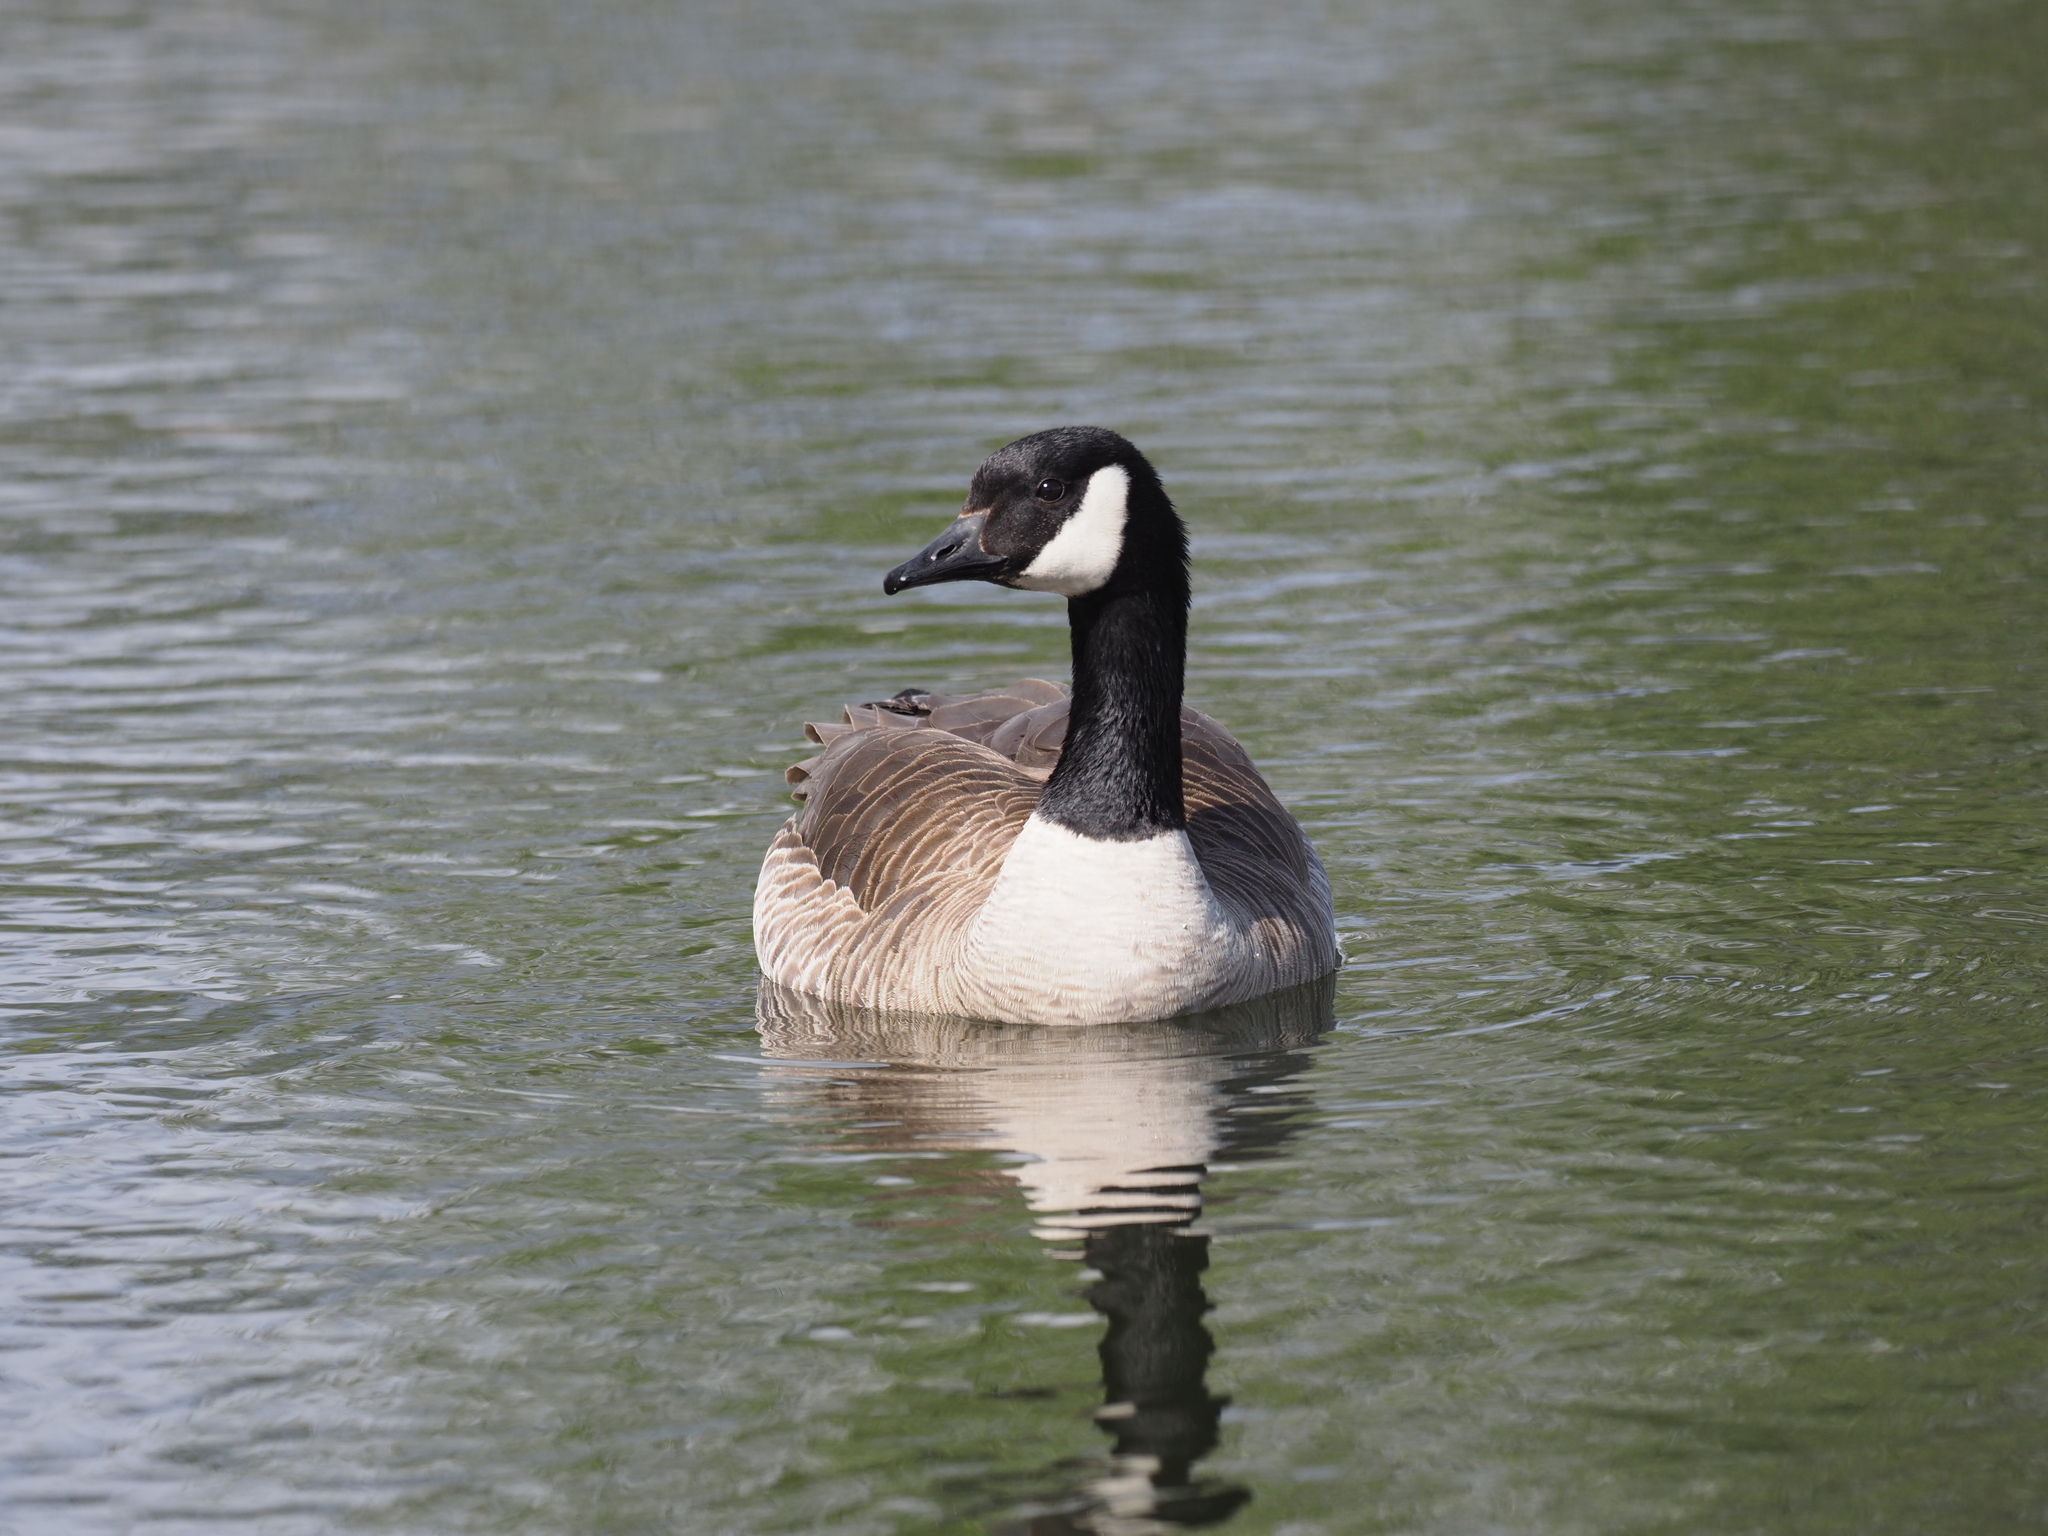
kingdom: Animalia
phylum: Chordata
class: Aves
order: Anseriformes
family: Anatidae
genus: Branta
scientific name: Branta canadensis
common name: Canada goose
